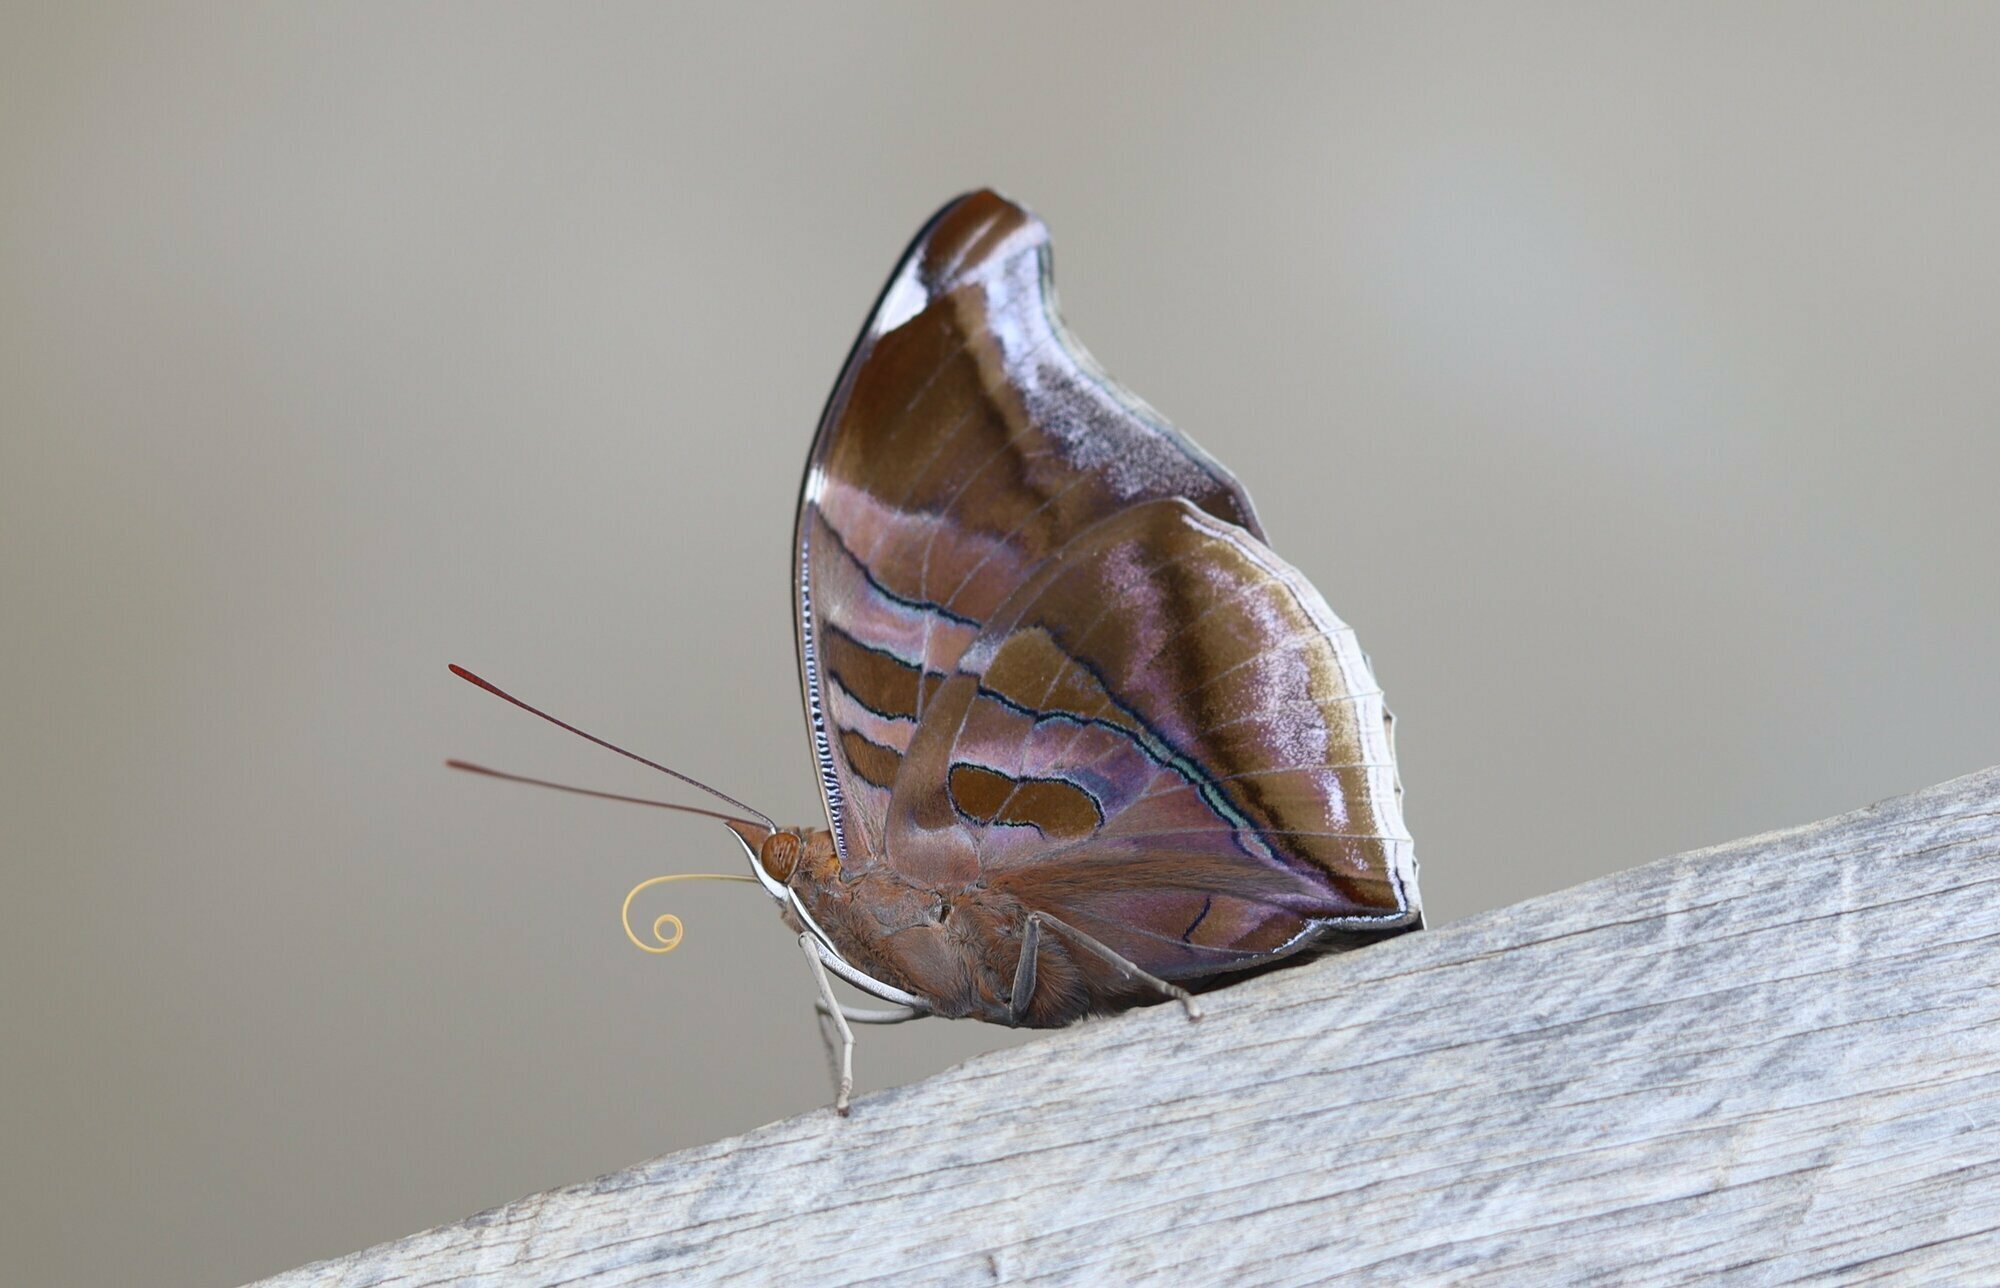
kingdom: Animalia
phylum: Arthropoda
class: Insecta
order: Lepidoptera
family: Nymphalidae
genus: Historis
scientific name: Historis odius
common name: Orion cecropian
